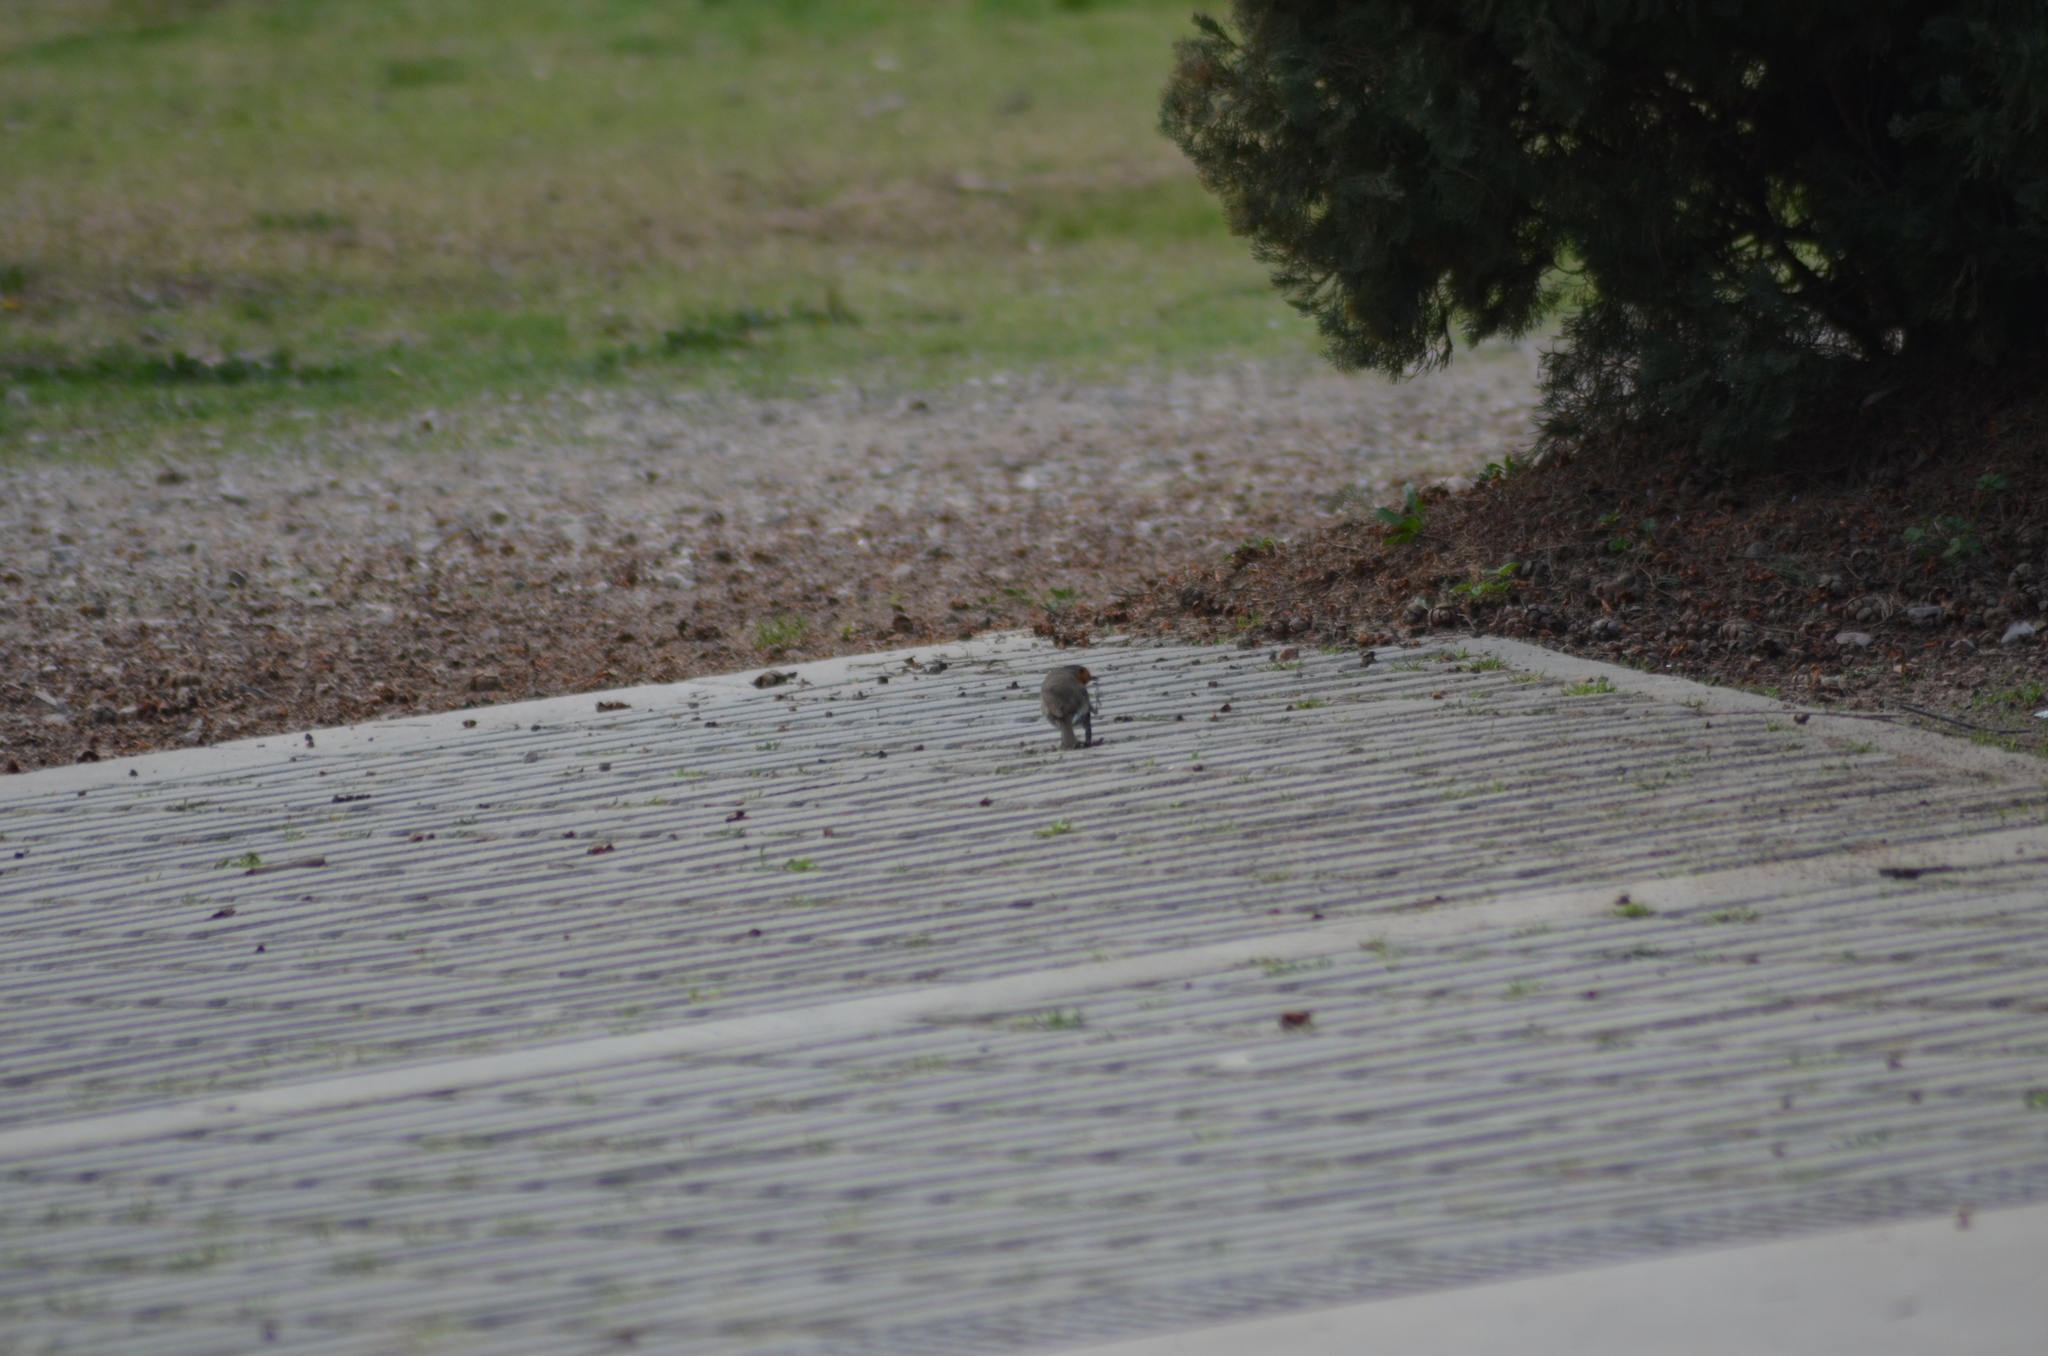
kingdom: Animalia
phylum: Chordata
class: Aves
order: Passeriformes
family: Muscicapidae
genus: Erithacus
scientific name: Erithacus rubecula
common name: European robin
